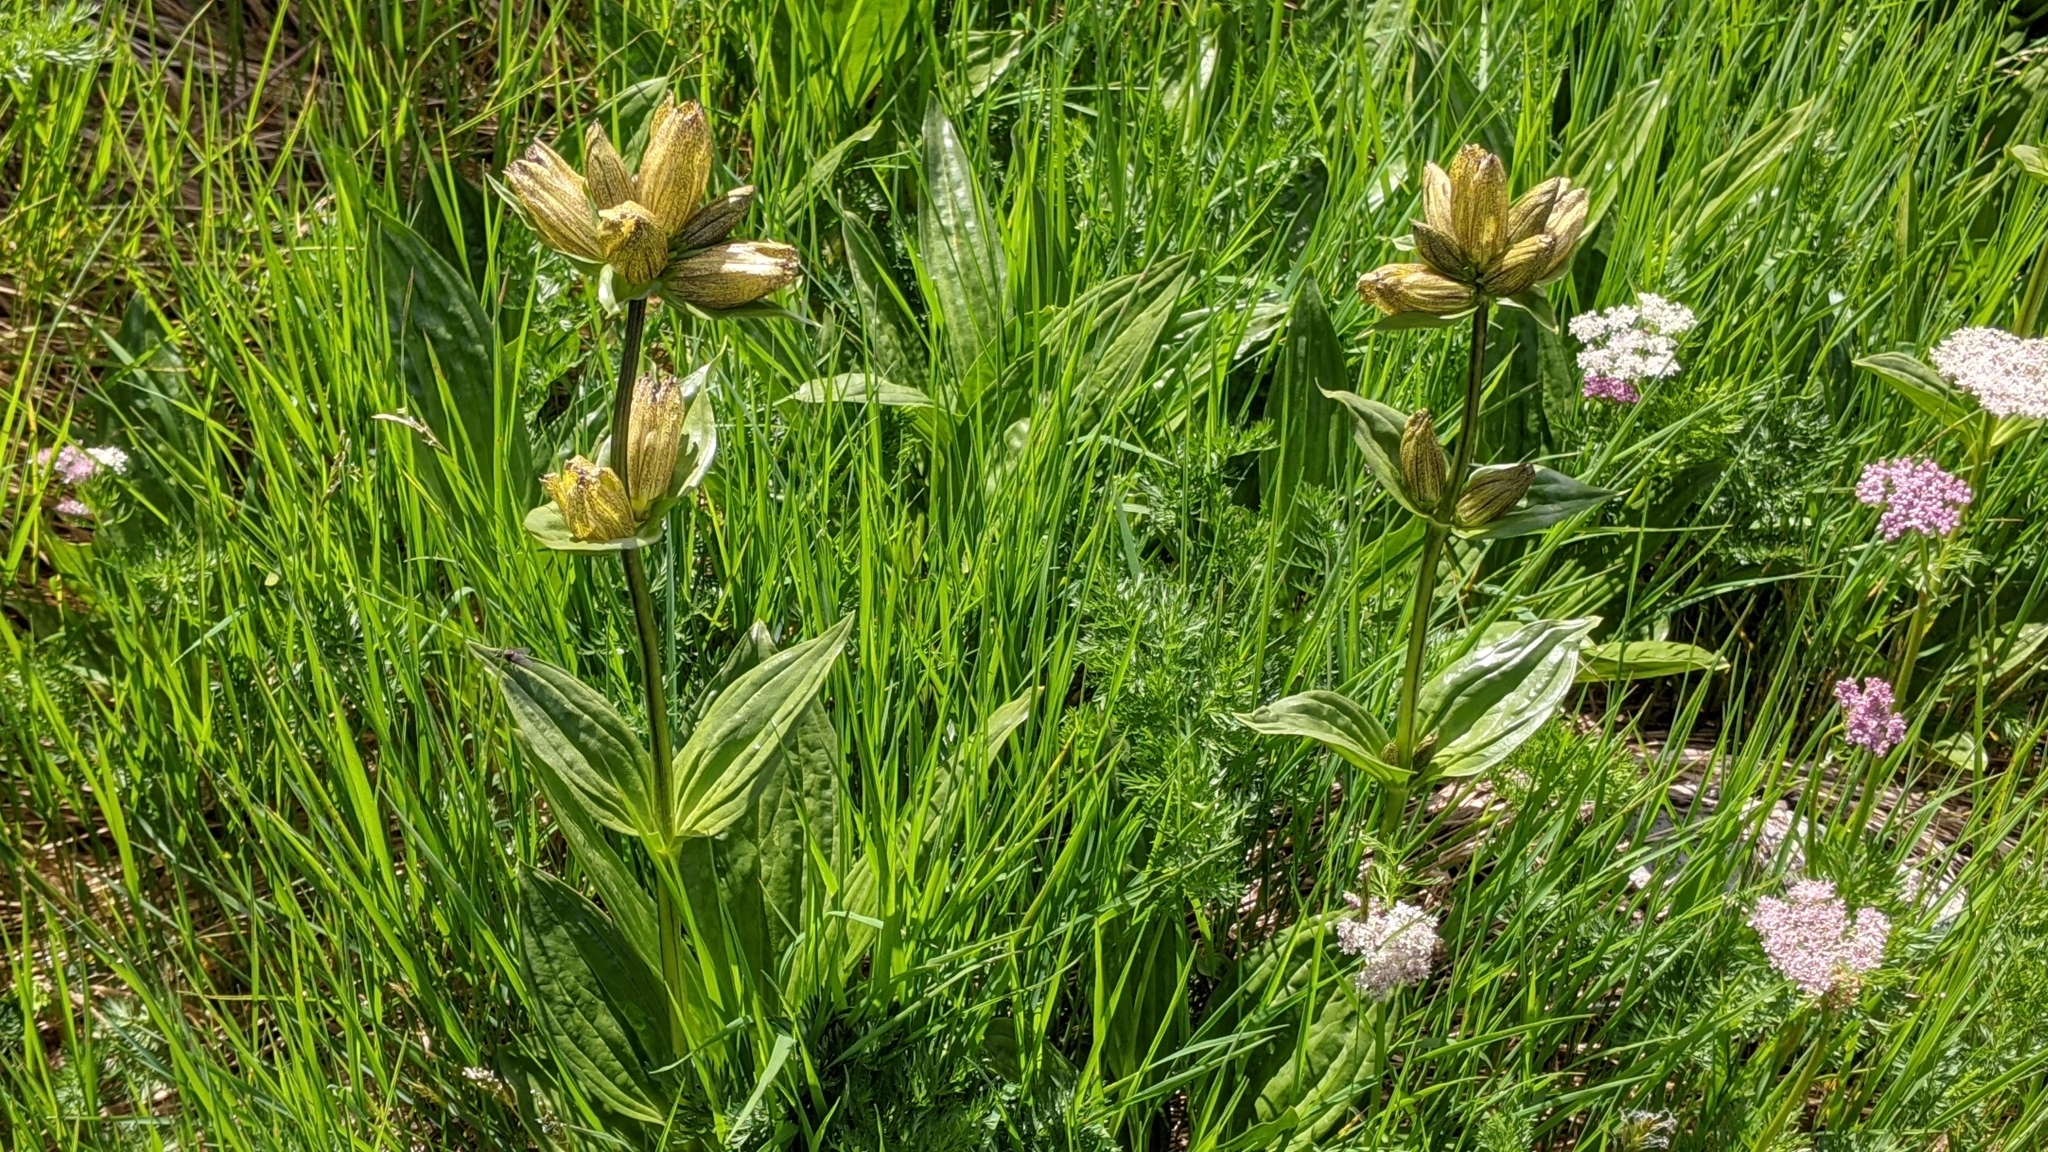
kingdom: Plantae
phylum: Tracheophyta
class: Magnoliopsida
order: Gentianales
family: Gentianaceae
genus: Gentiana
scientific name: Gentiana punctata
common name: Spotted gentian
